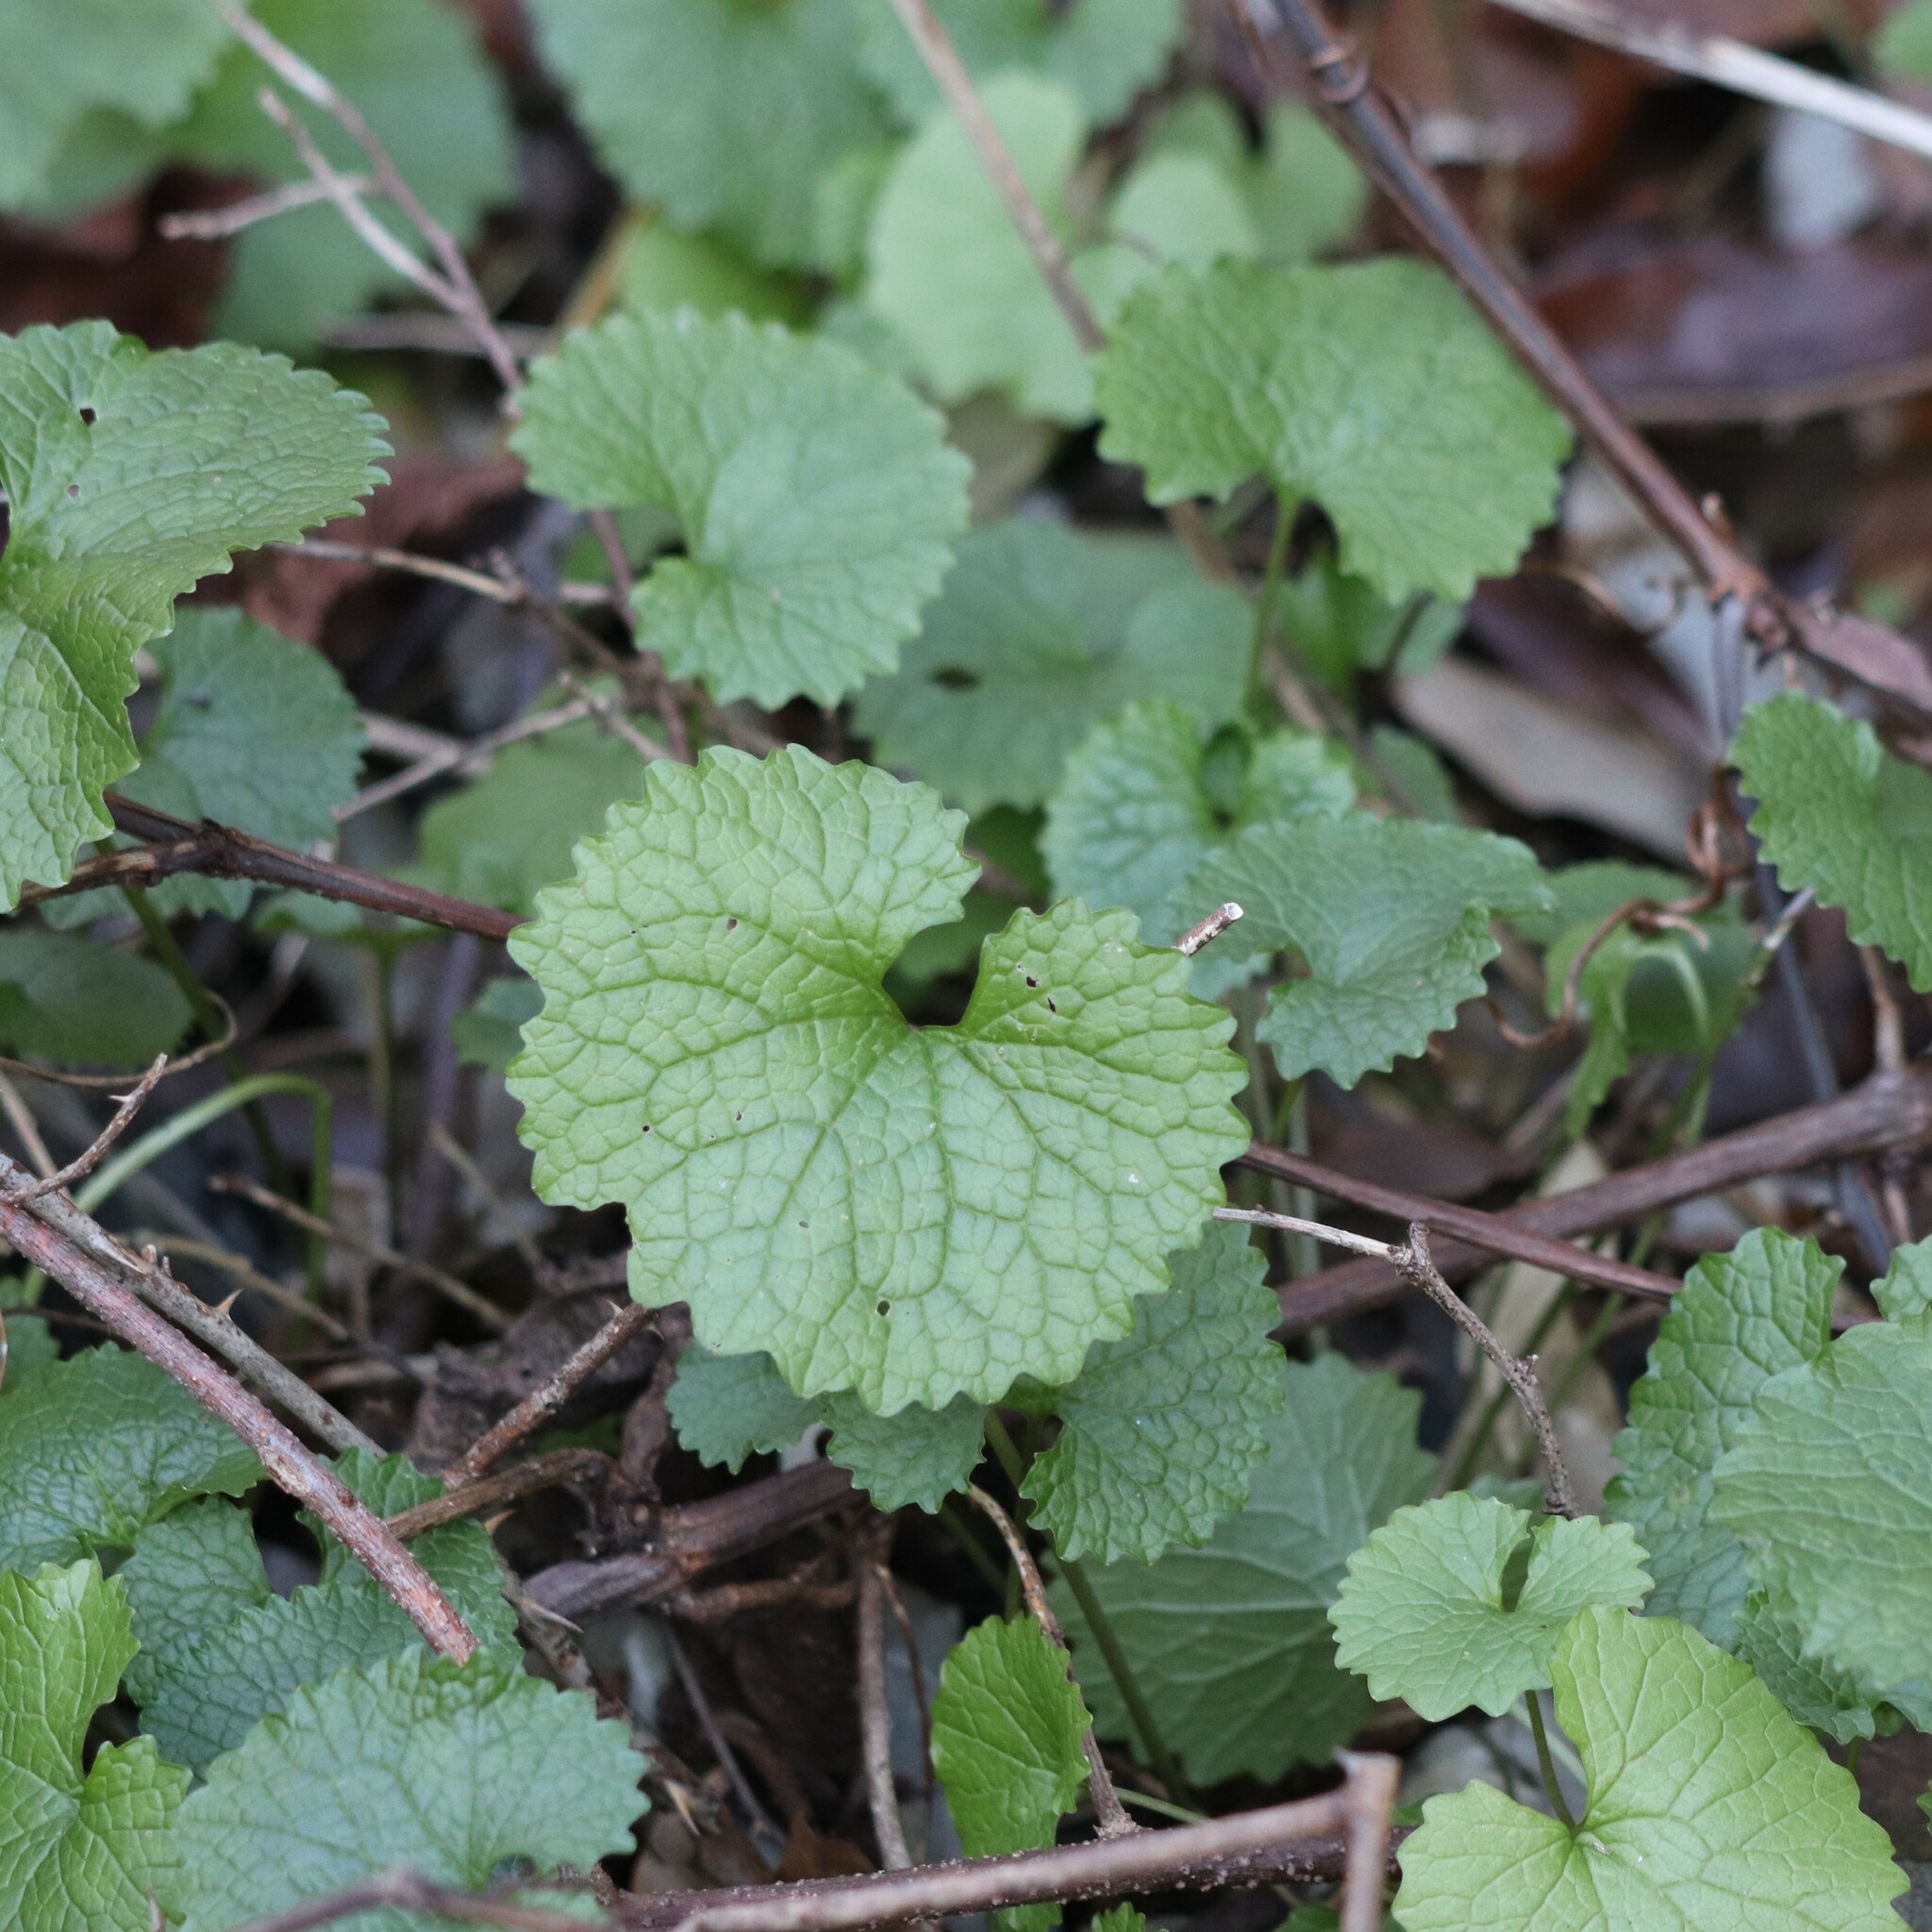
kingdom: Plantae
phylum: Tracheophyta
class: Magnoliopsida
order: Brassicales
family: Brassicaceae
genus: Alliaria
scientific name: Alliaria petiolata
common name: Garlic mustard
